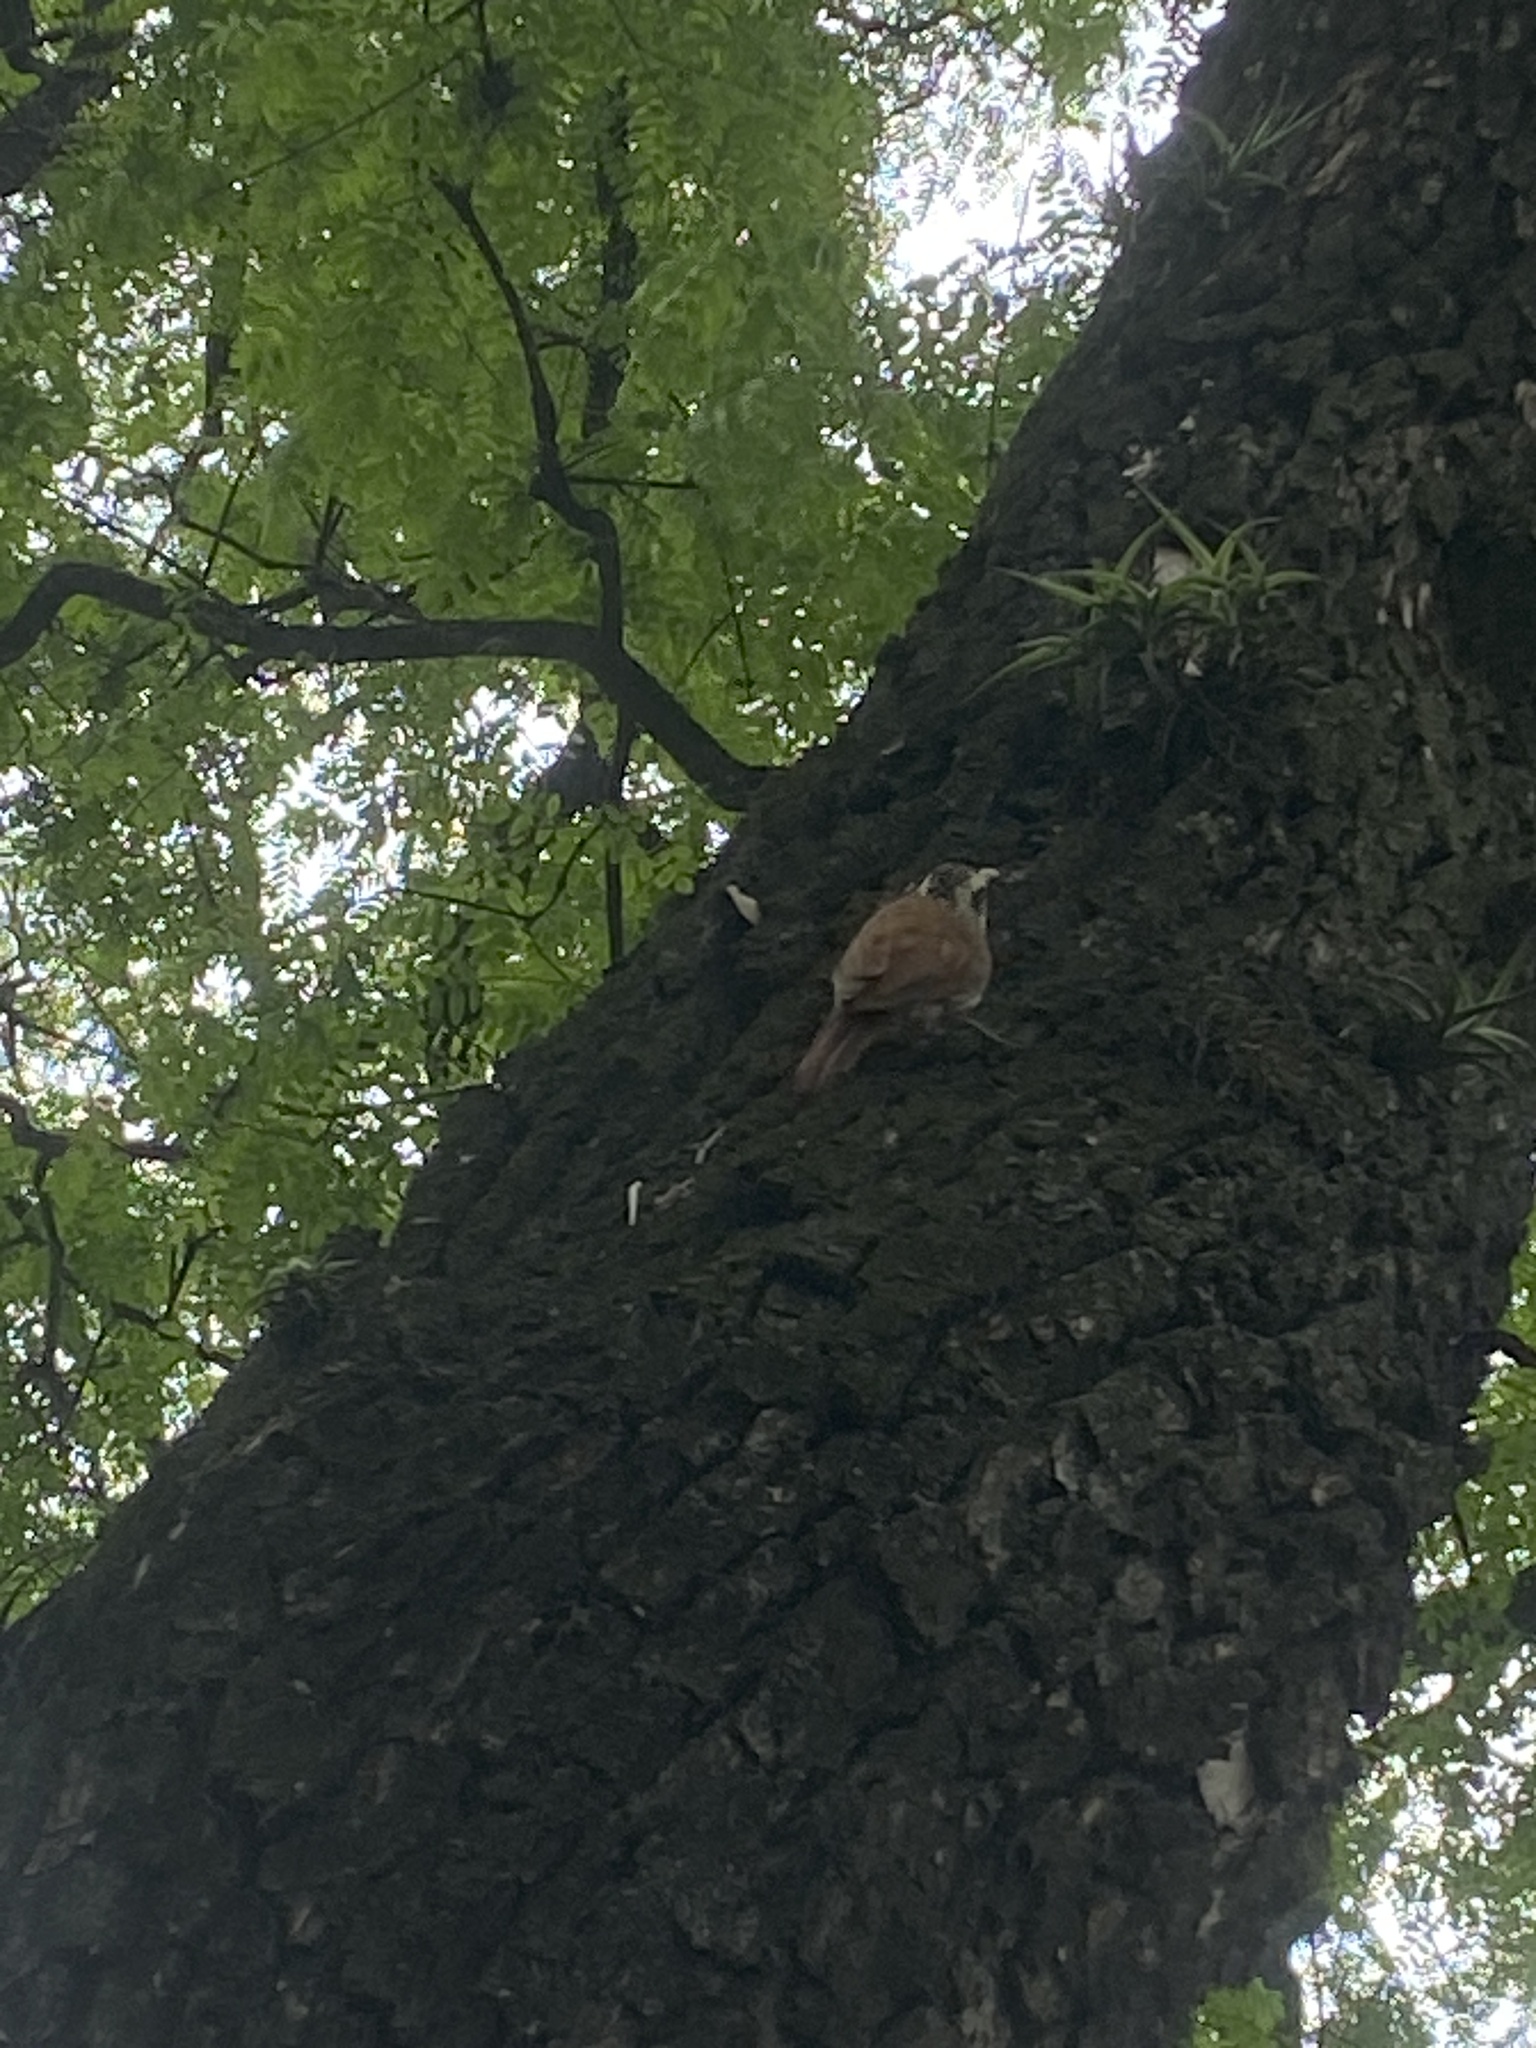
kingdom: Animalia
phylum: Chordata
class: Aves
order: Passeriformes
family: Furnariidae
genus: Lepidocolaptes
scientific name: Lepidocolaptes angustirostris
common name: Narrow-billed woodcreeper
